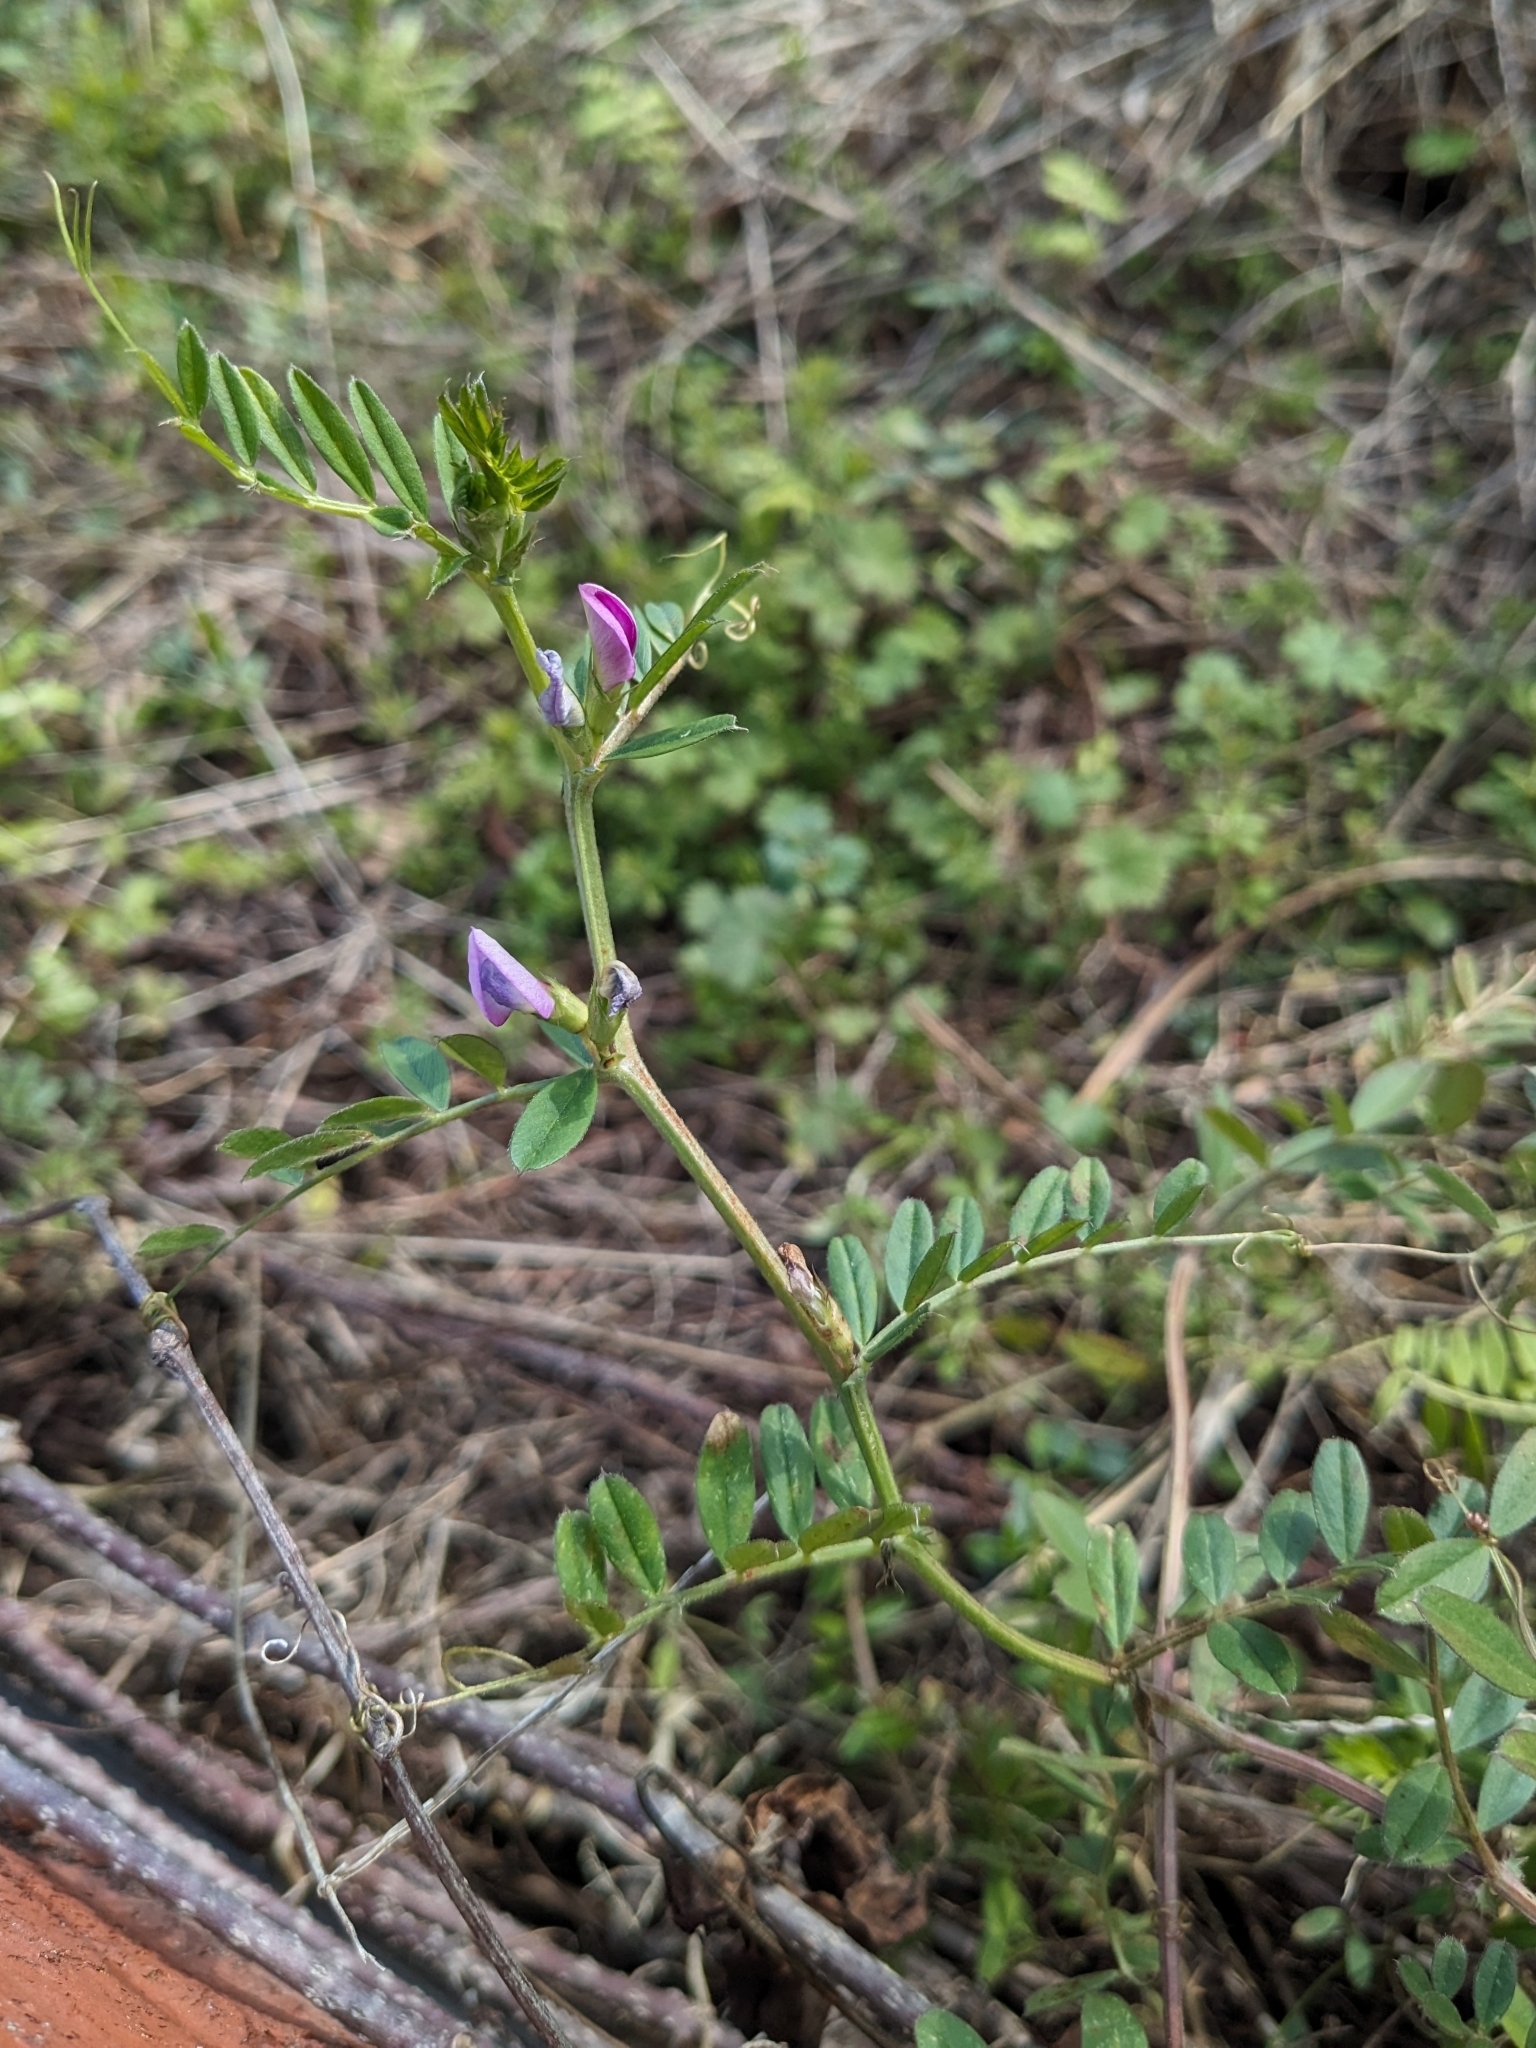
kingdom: Plantae
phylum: Tracheophyta
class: Magnoliopsida
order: Fabales
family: Fabaceae
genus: Vicia
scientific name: Vicia sativa
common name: Garden vetch
